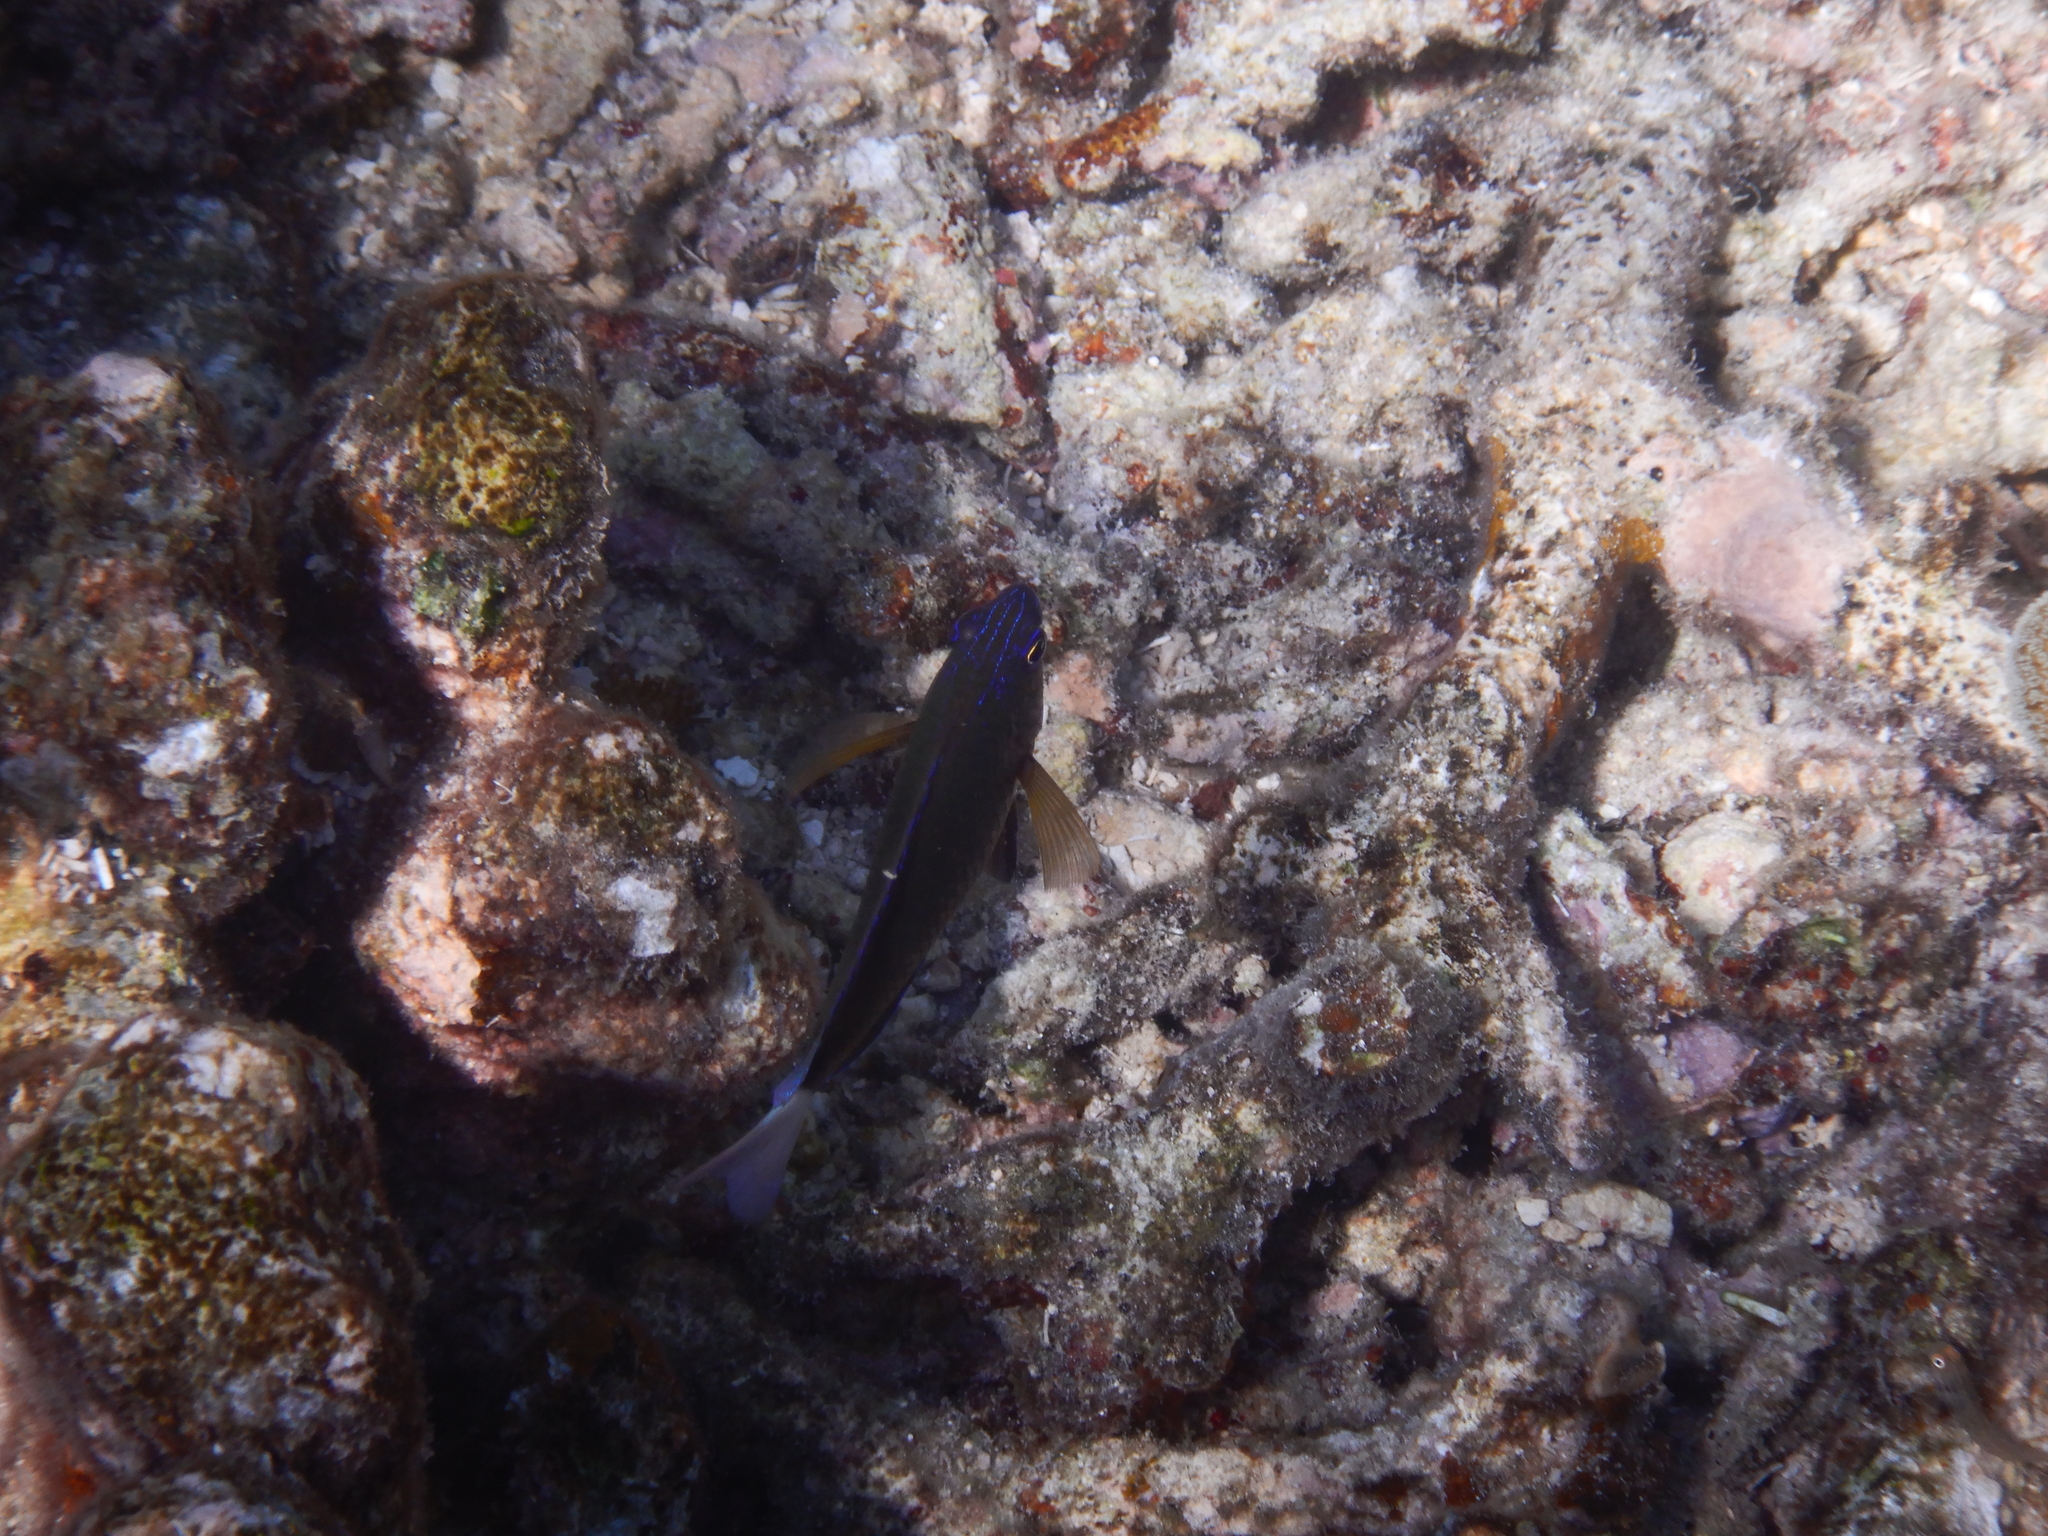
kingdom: Animalia
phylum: Chordata
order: Perciformes
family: Pomacentridae
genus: Pomacentrus
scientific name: Pomacentrus bankanensis
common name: Speckled damsel
